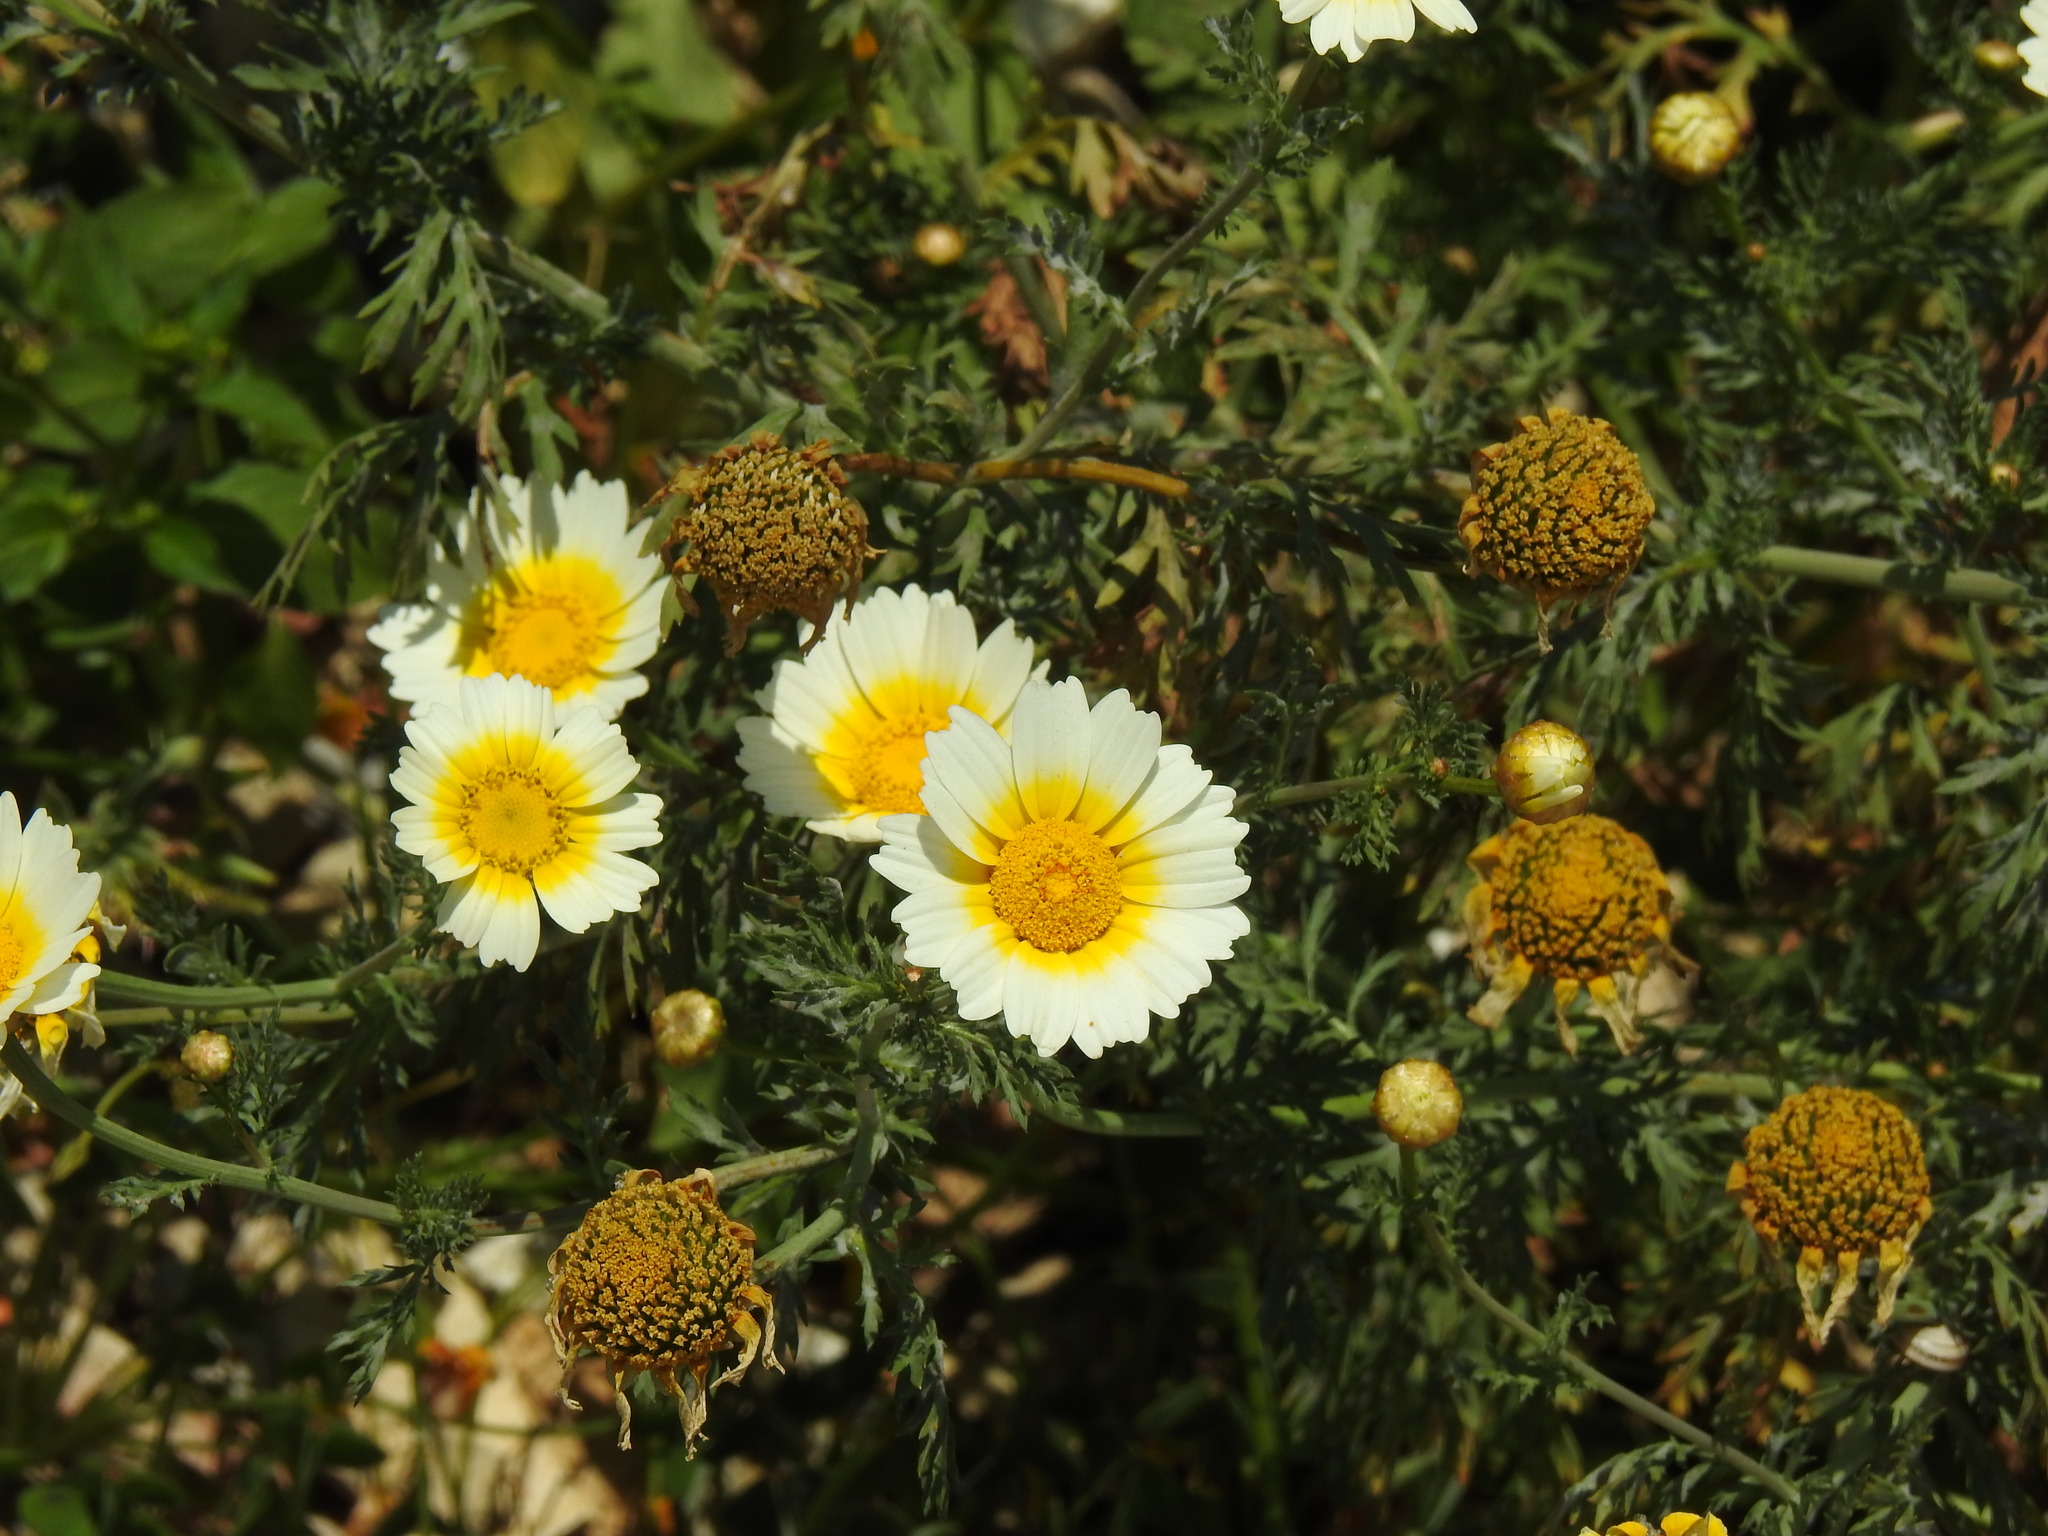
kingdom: Plantae
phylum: Tracheophyta
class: Magnoliopsida
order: Asterales
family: Asteraceae
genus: Glebionis
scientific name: Glebionis coronaria
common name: Crowndaisy
